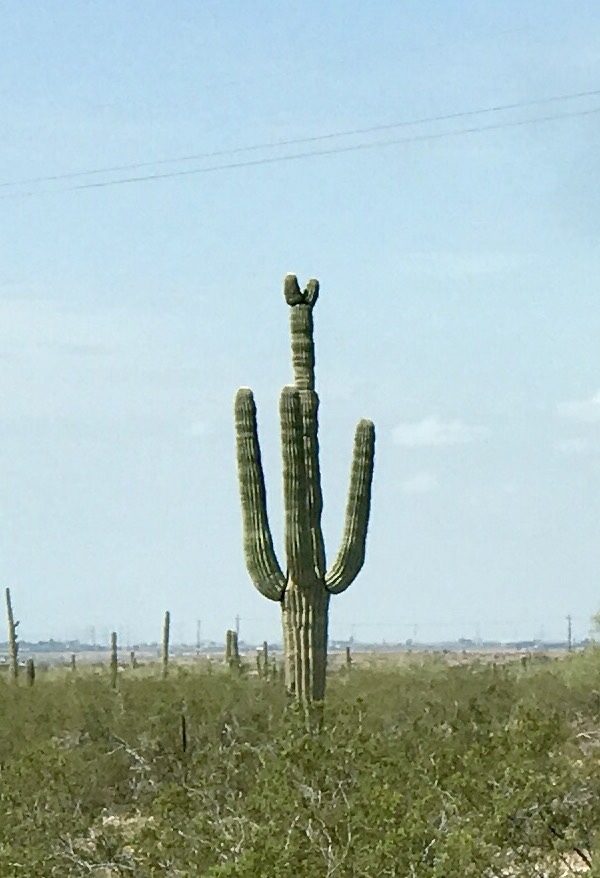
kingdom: Plantae
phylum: Tracheophyta
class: Magnoliopsida
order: Caryophyllales
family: Cactaceae
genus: Carnegiea
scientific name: Carnegiea gigantea
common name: Saguaro
